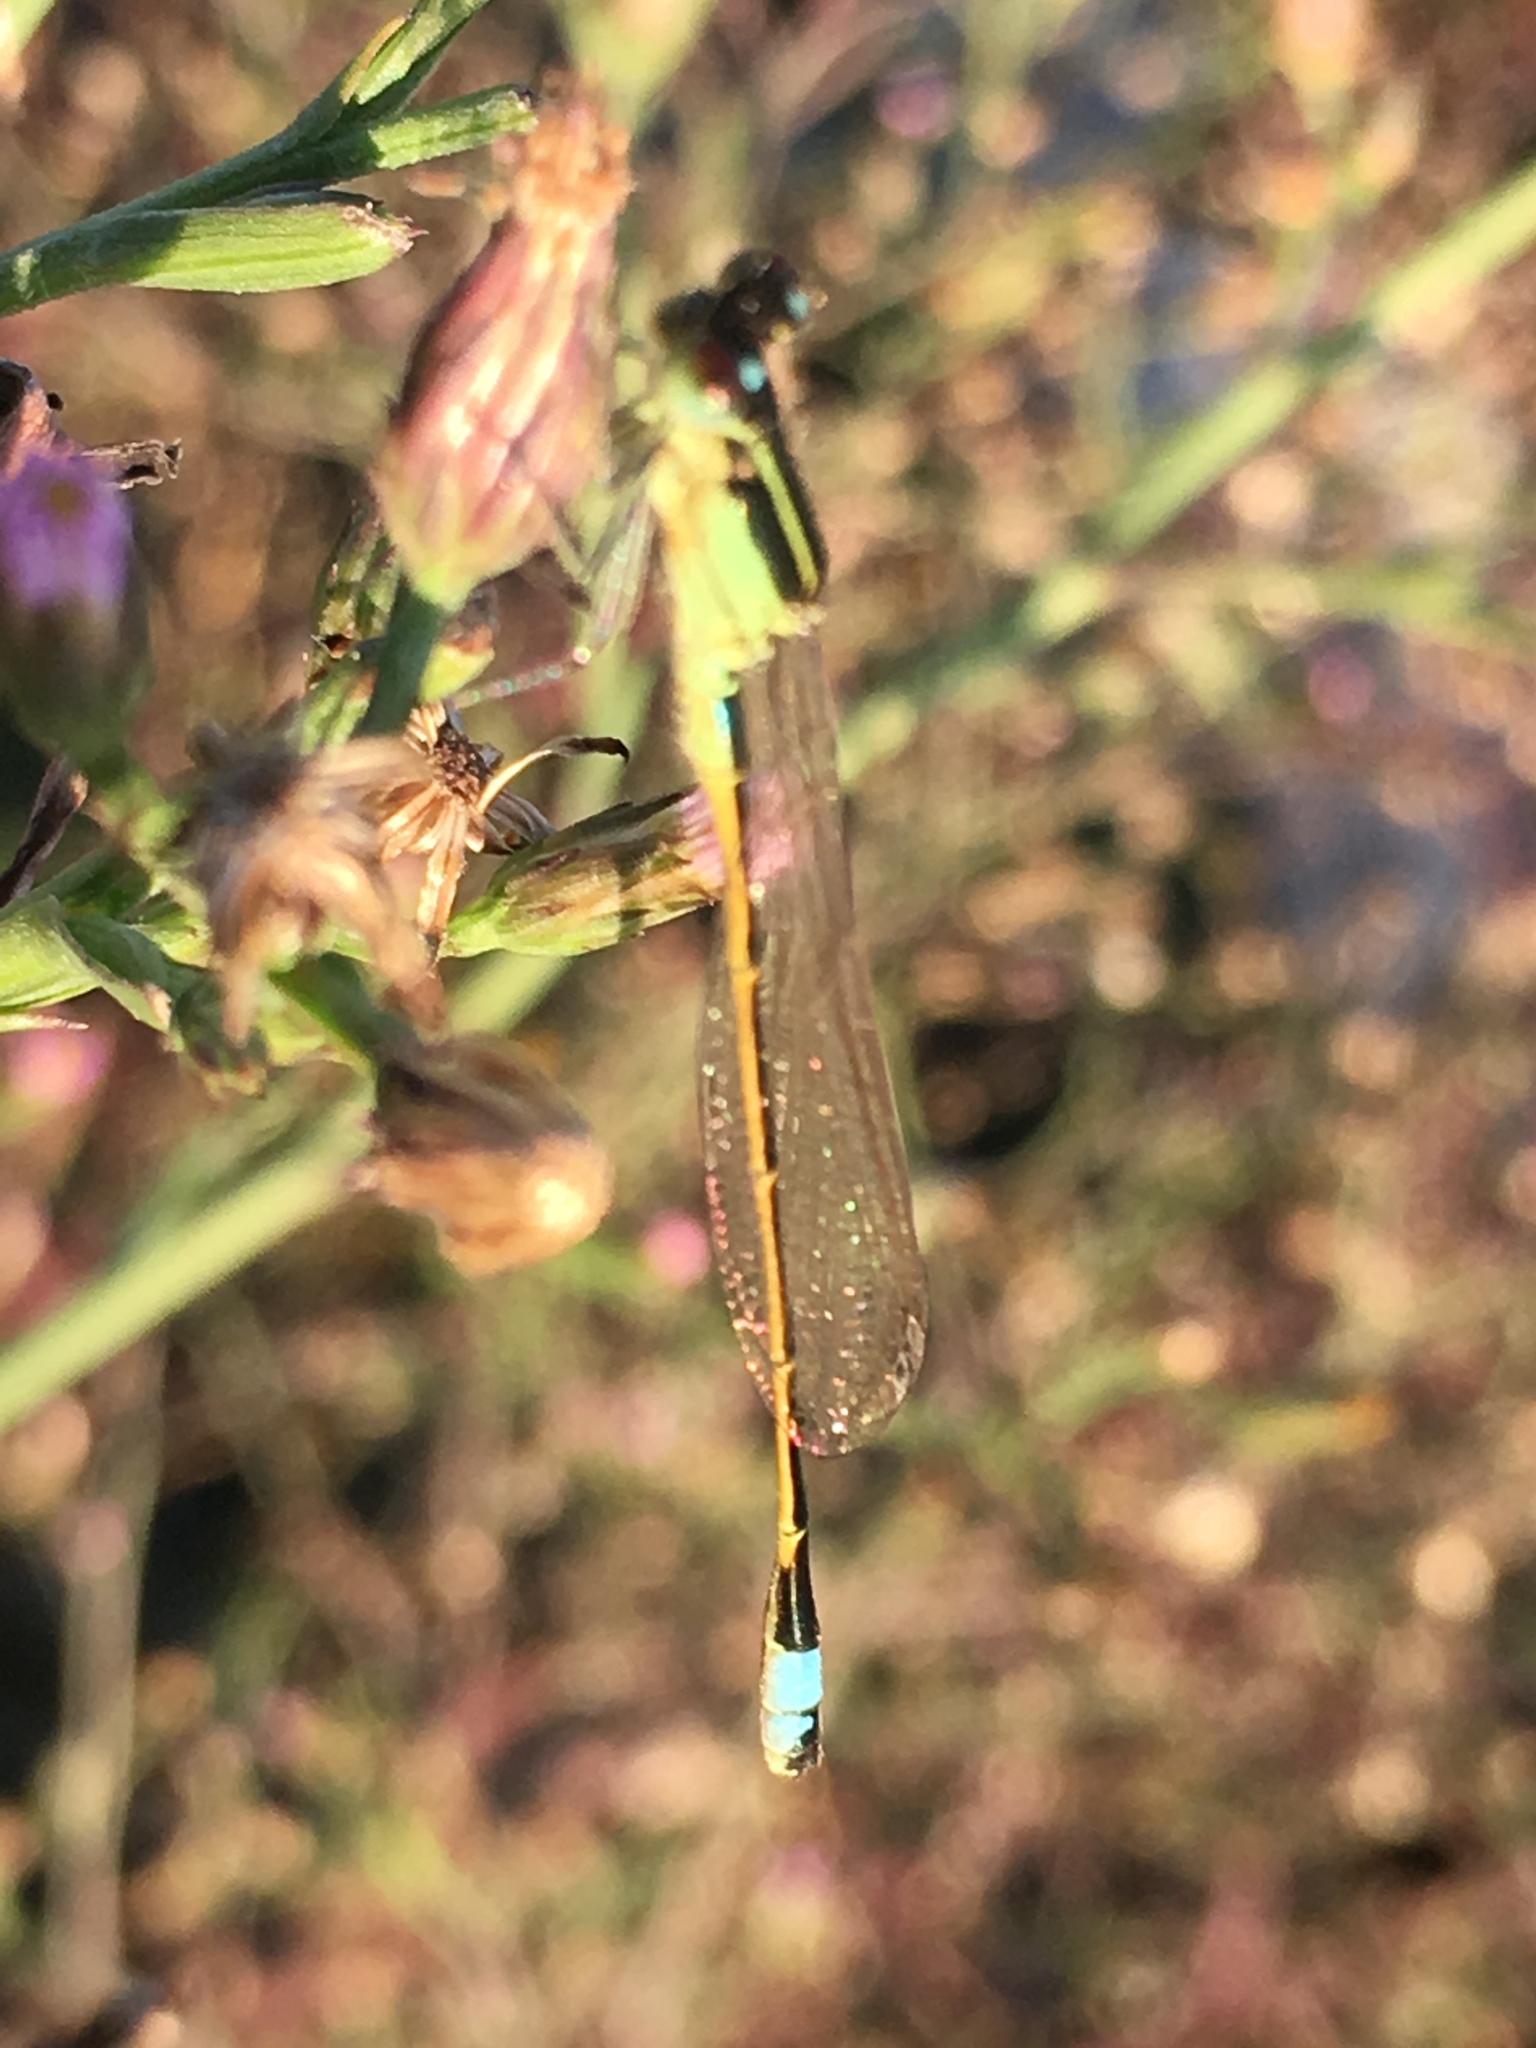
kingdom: Animalia
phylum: Arthropoda
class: Insecta
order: Odonata
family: Coenagrionidae
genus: Ischnura
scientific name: Ischnura ramburii
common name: Rambur's forktail
